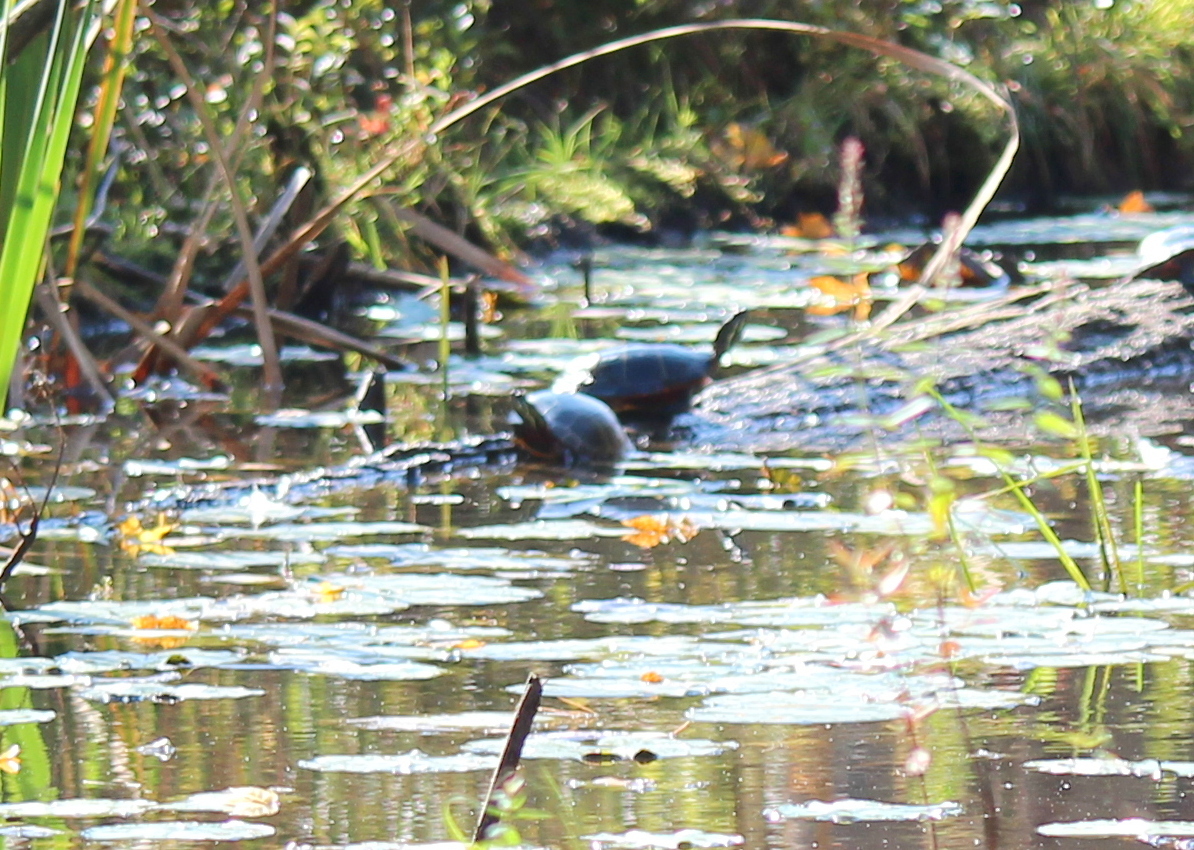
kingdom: Animalia
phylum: Chordata
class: Testudines
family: Emydidae
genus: Chrysemys
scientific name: Chrysemys picta
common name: Painted turtle
